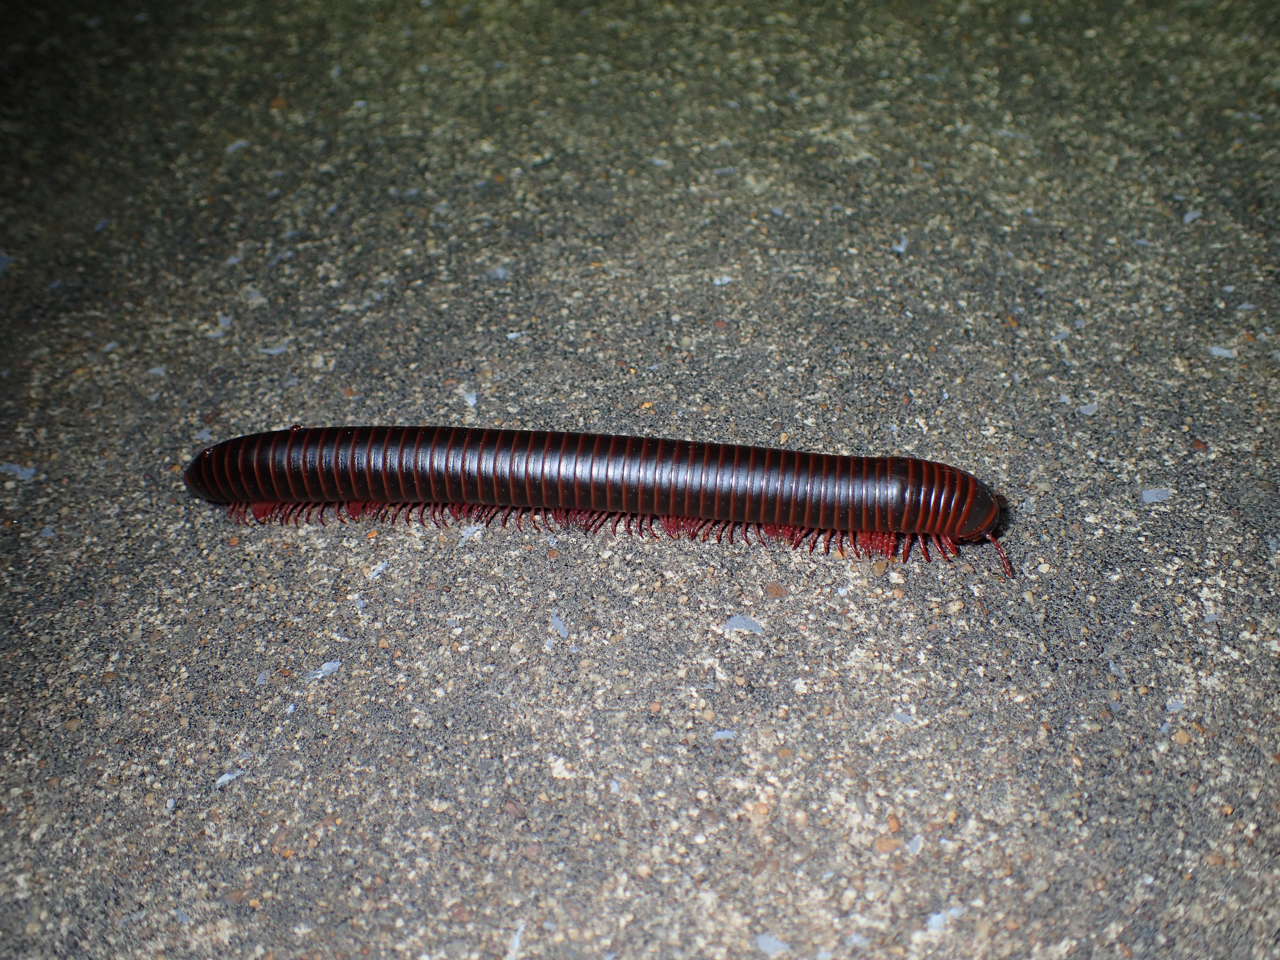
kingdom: Animalia
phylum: Arthropoda
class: Diplopoda
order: Spirobolida
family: Spirobolidae
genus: Narceus
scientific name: Narceus
